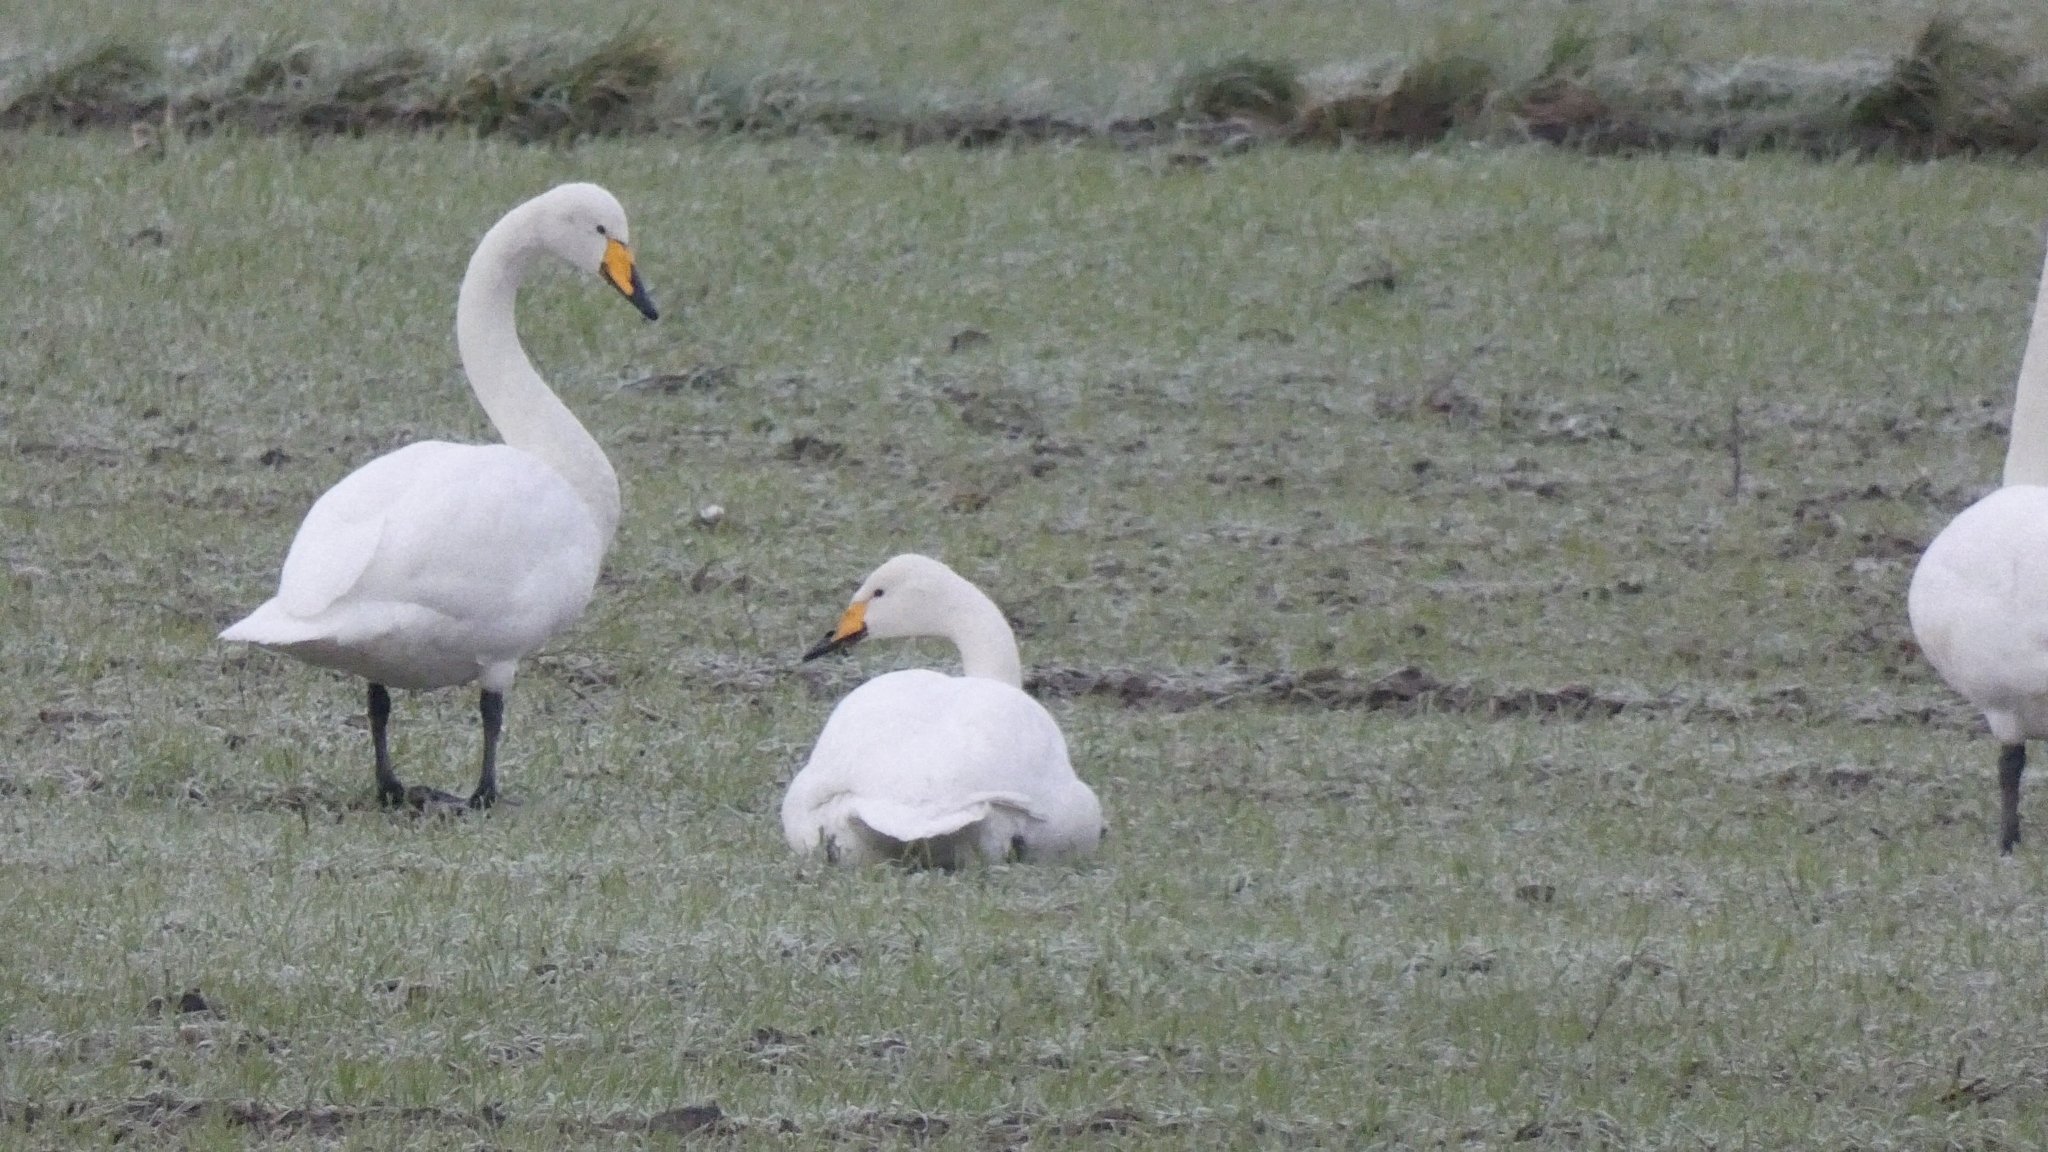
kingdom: Animalia
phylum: Chordata
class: Aves
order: Anseriformes
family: Anatidae
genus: Cygnus
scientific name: Cygnus cygnus
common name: Whooper swan
